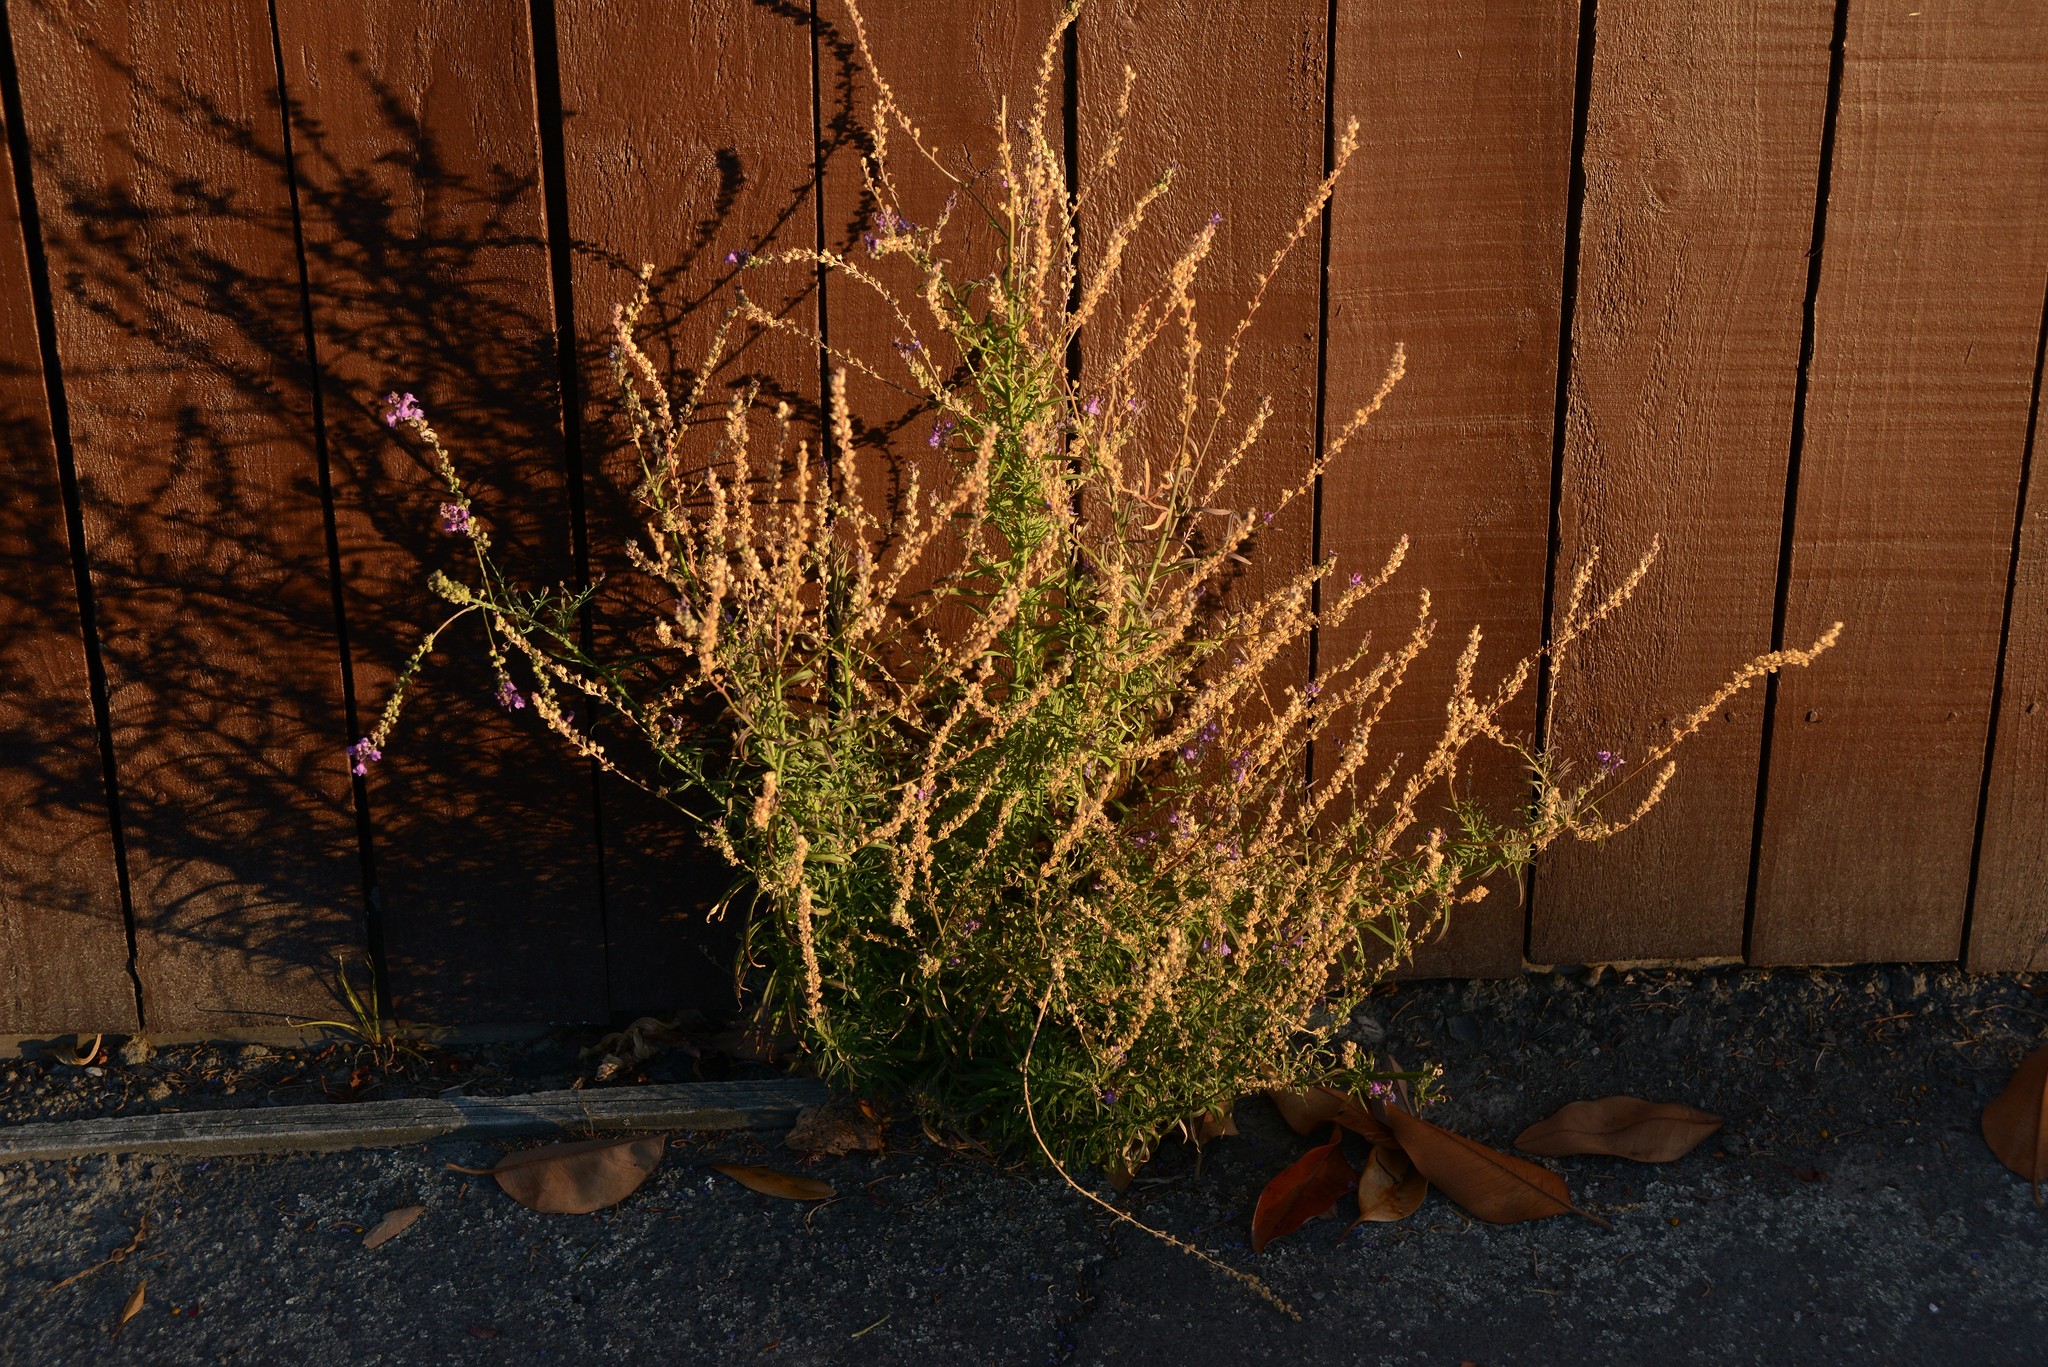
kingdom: Plantae
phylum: Tracheophyta
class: Magnoliopsida
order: Lamiales
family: Plantaginaceae
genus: Linaria
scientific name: Linaria purpurea
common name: Purple toadflax
